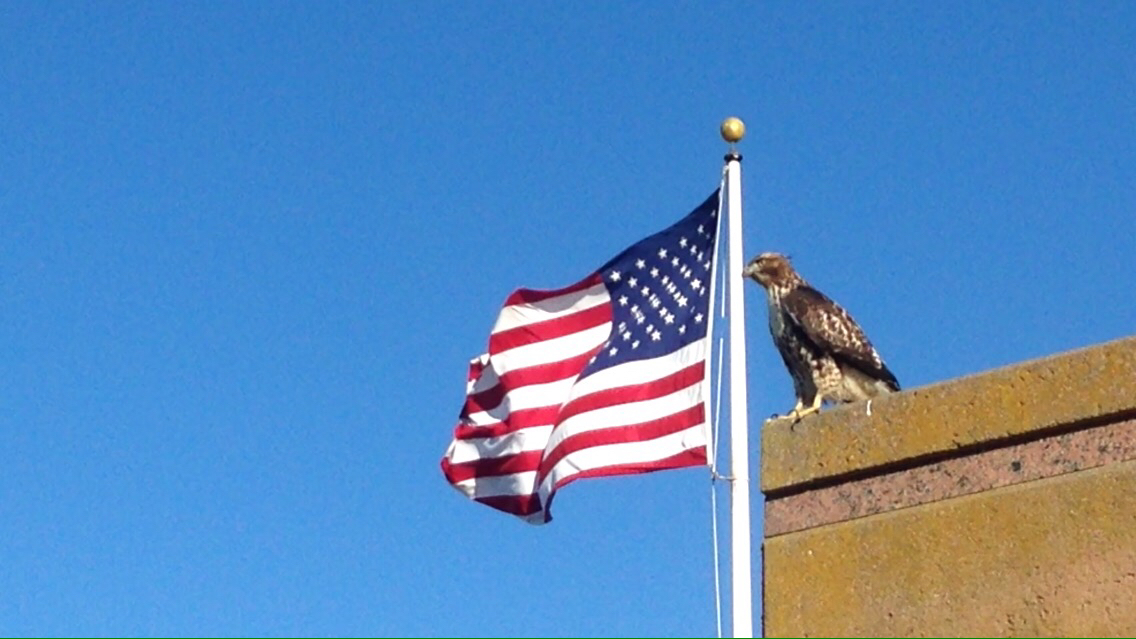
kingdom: Animalia
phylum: Chordata
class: Aves
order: Accipitriformes
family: Accipitridae
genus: Buteo
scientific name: Buteo jamaicensis
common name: Red-tailed hawk
